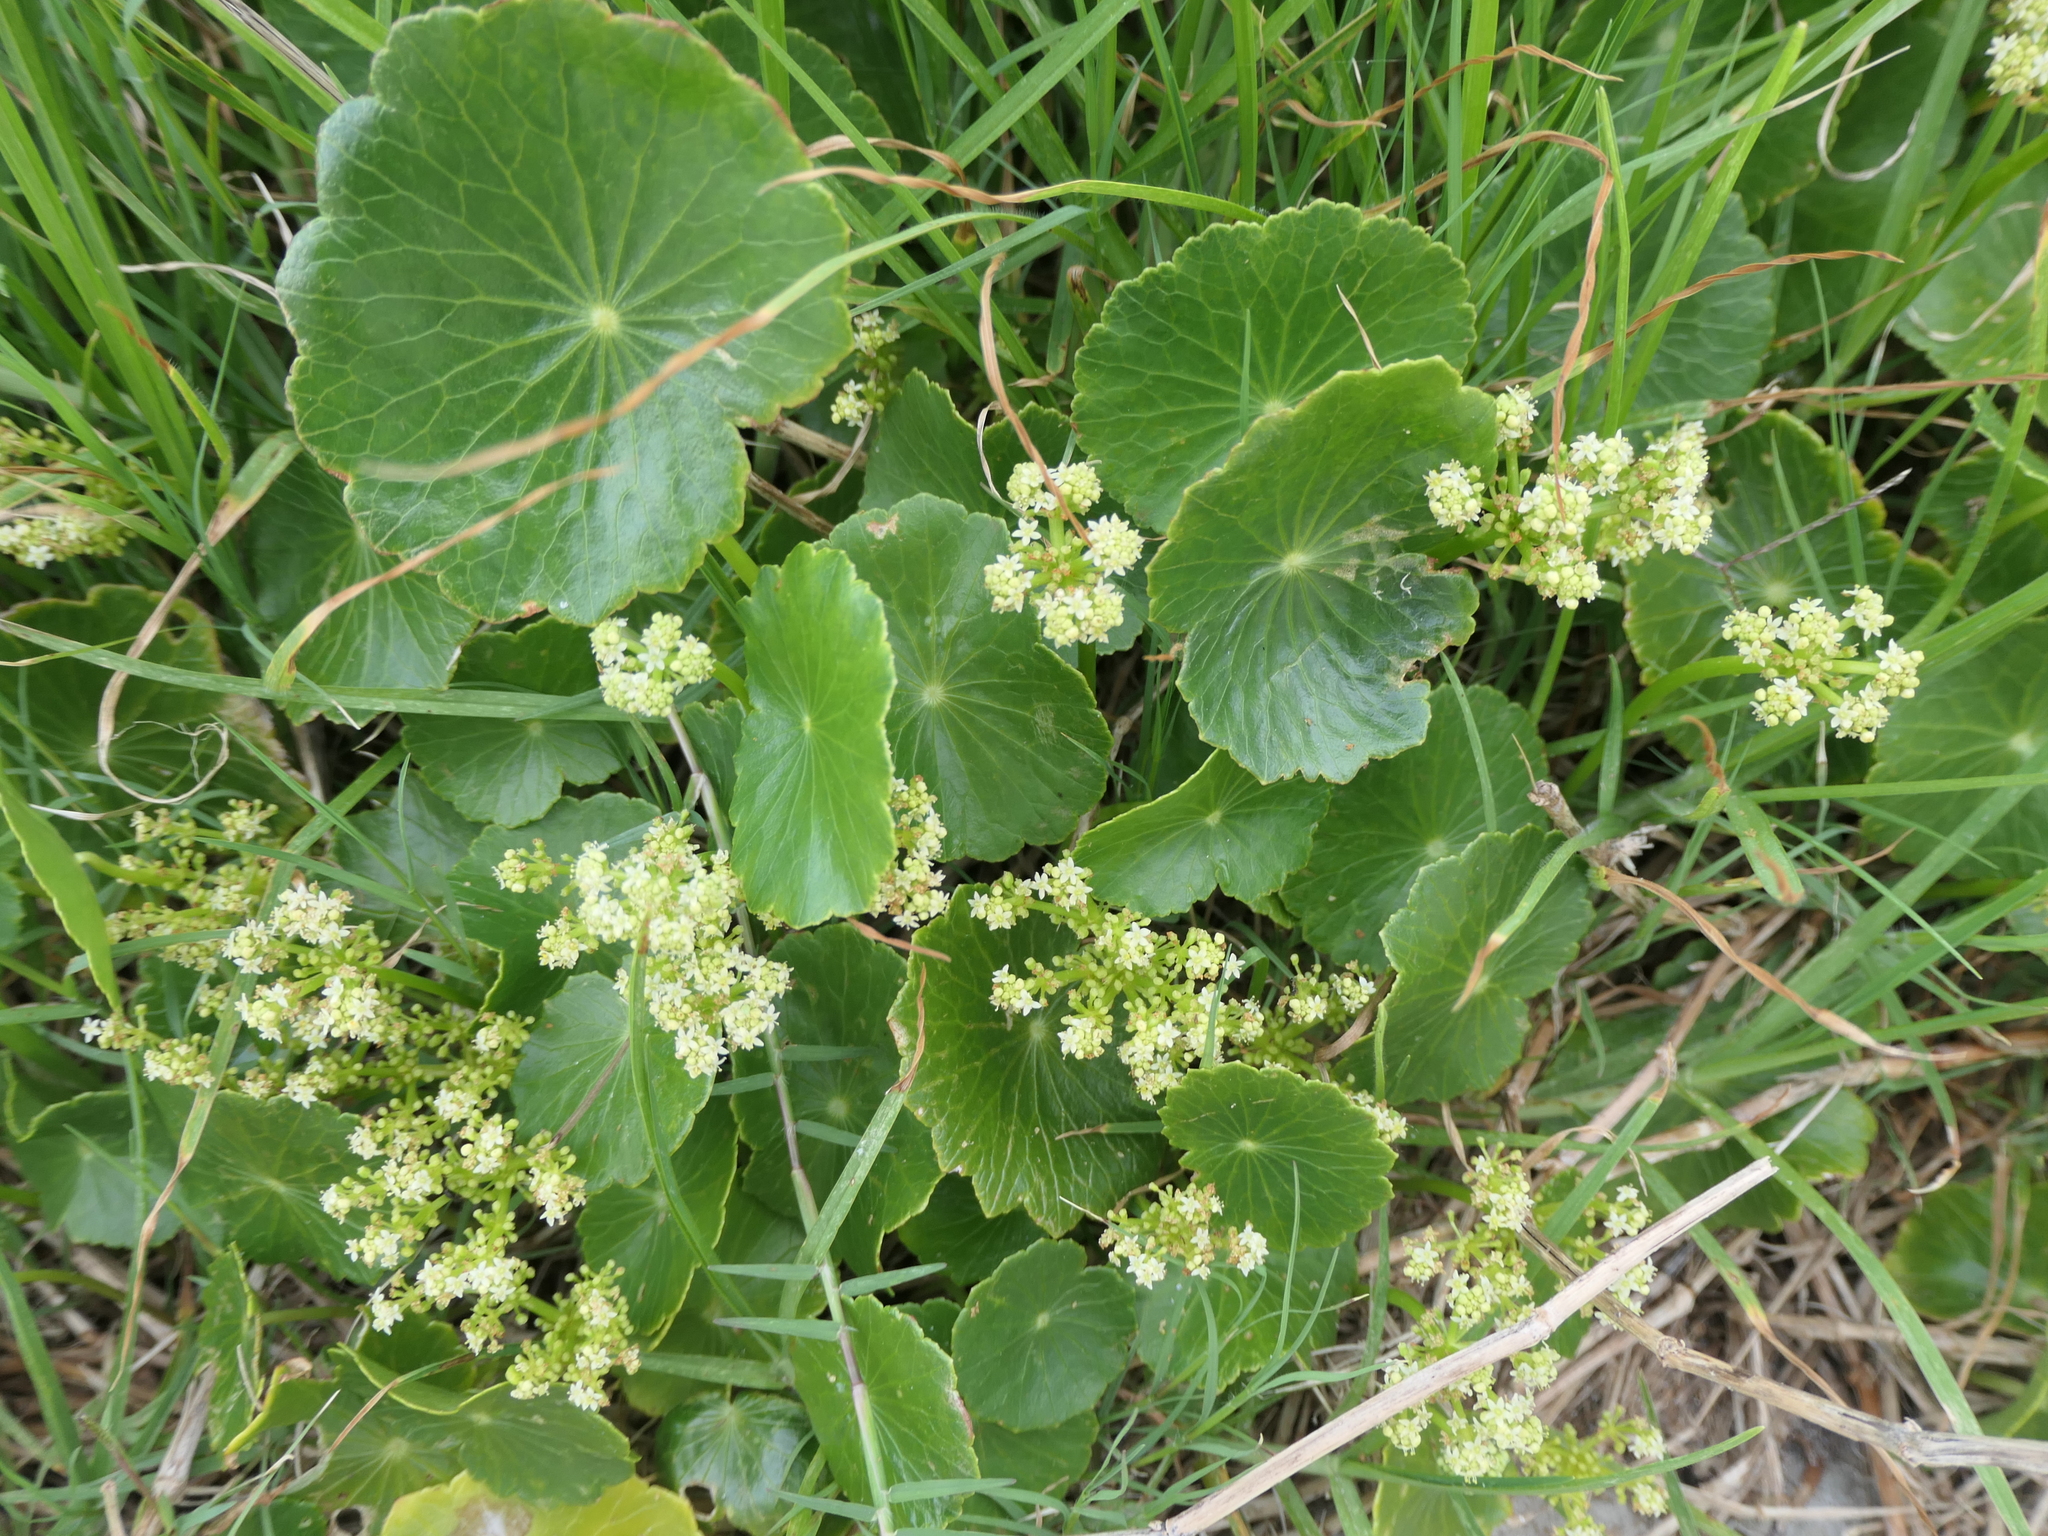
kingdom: Plantae
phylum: Tracheophyta
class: Magnoliopsida
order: Apiales
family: Araliaceae
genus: Hydrocotyle
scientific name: Hydrocotyle bonariensis
